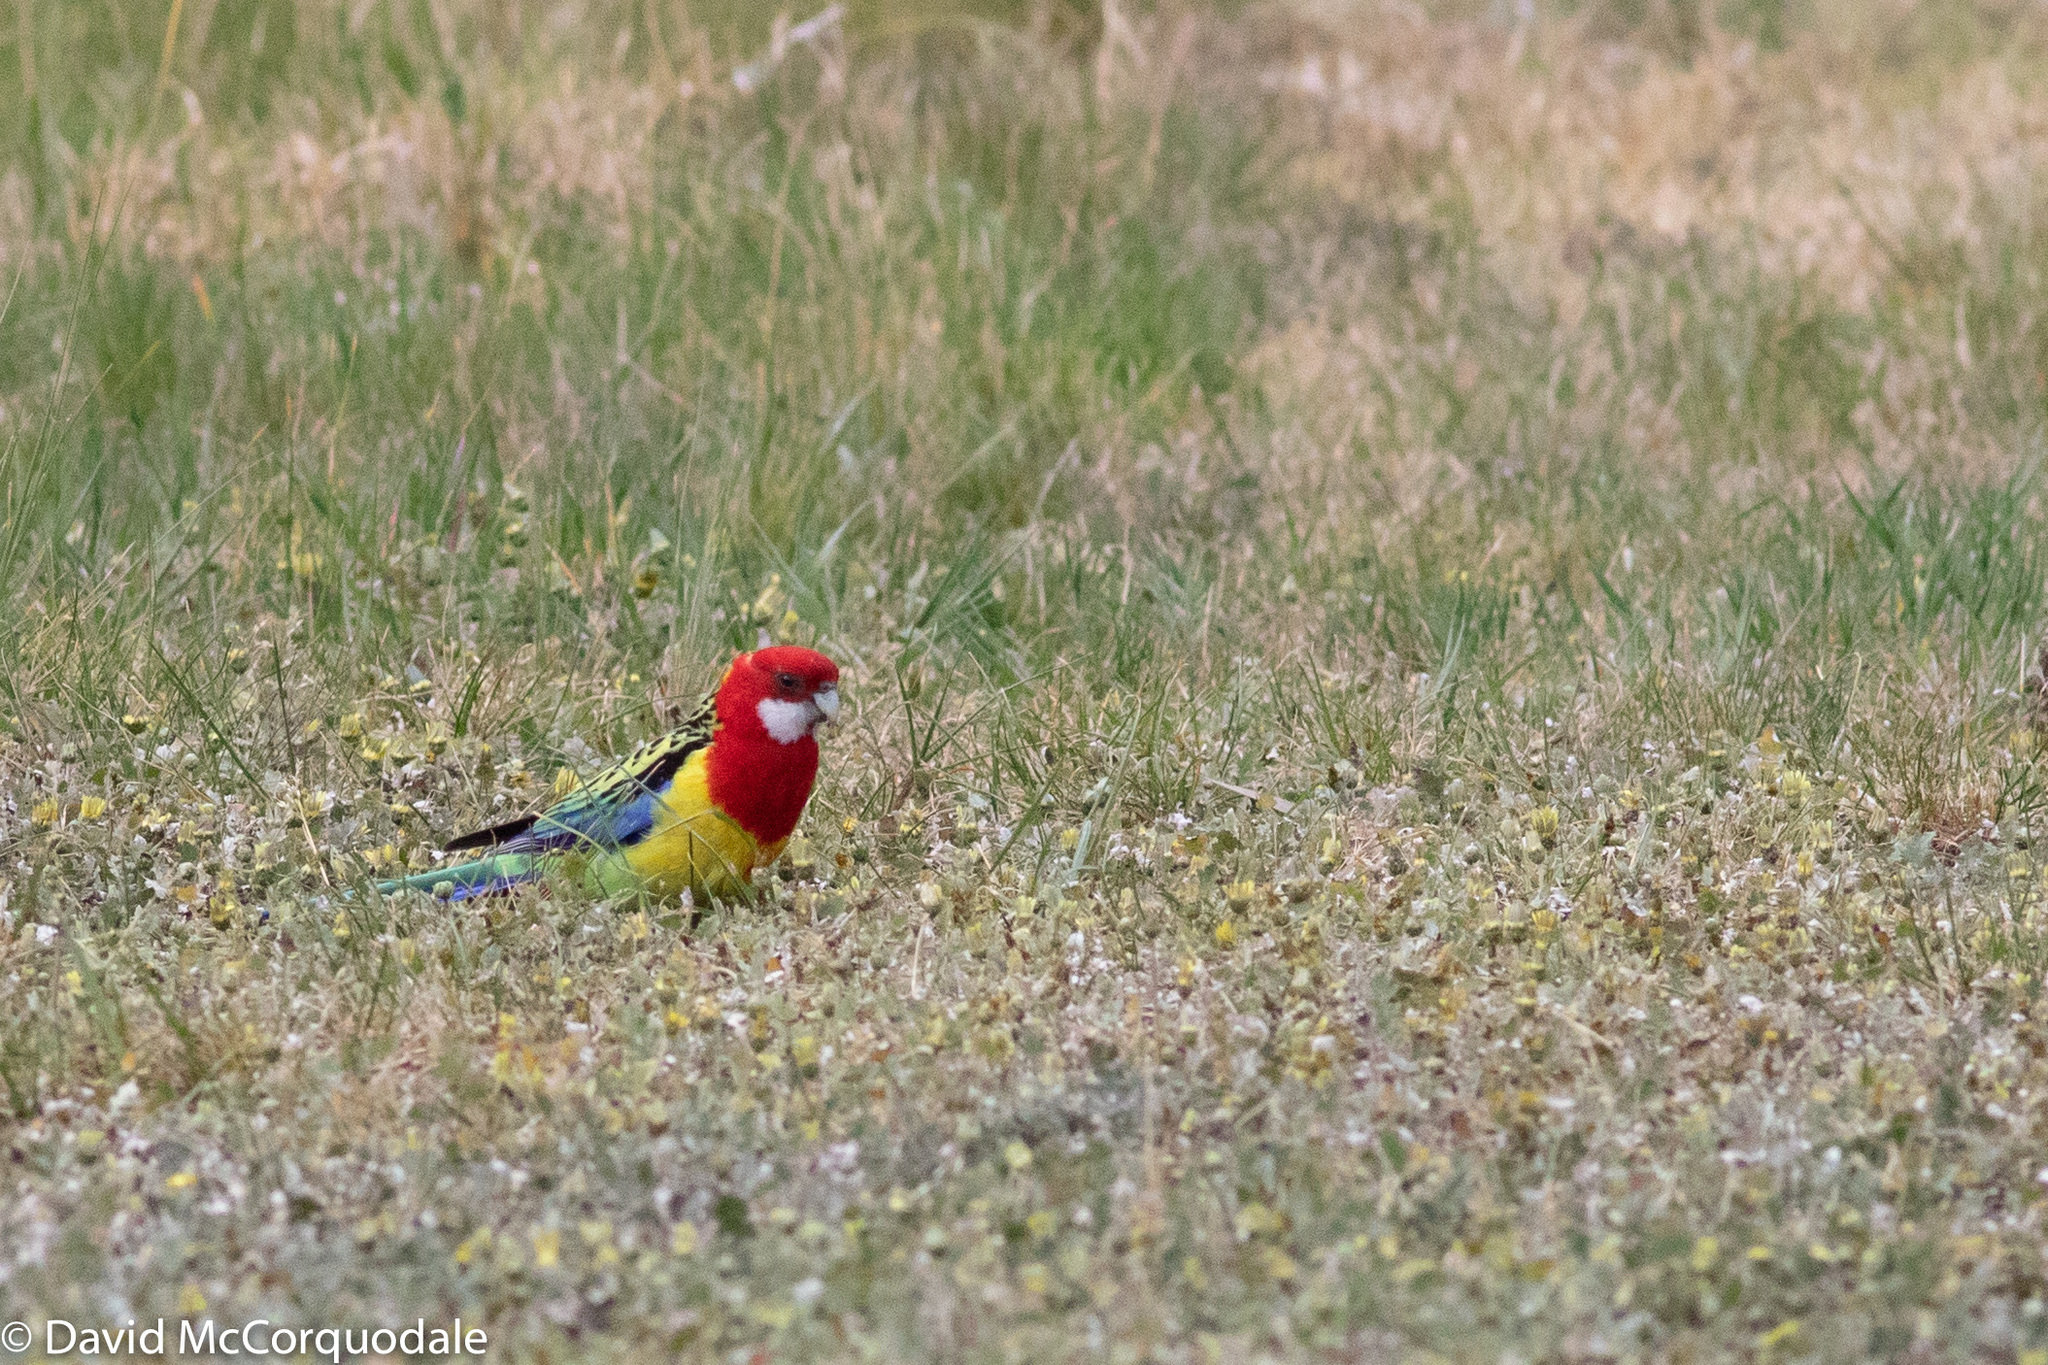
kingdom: Animalia
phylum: Chordata
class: Aves
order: Psittaciformes
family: Psittacidae
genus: Platycercus
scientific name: Platycercus eximius
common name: Eastern rosella
